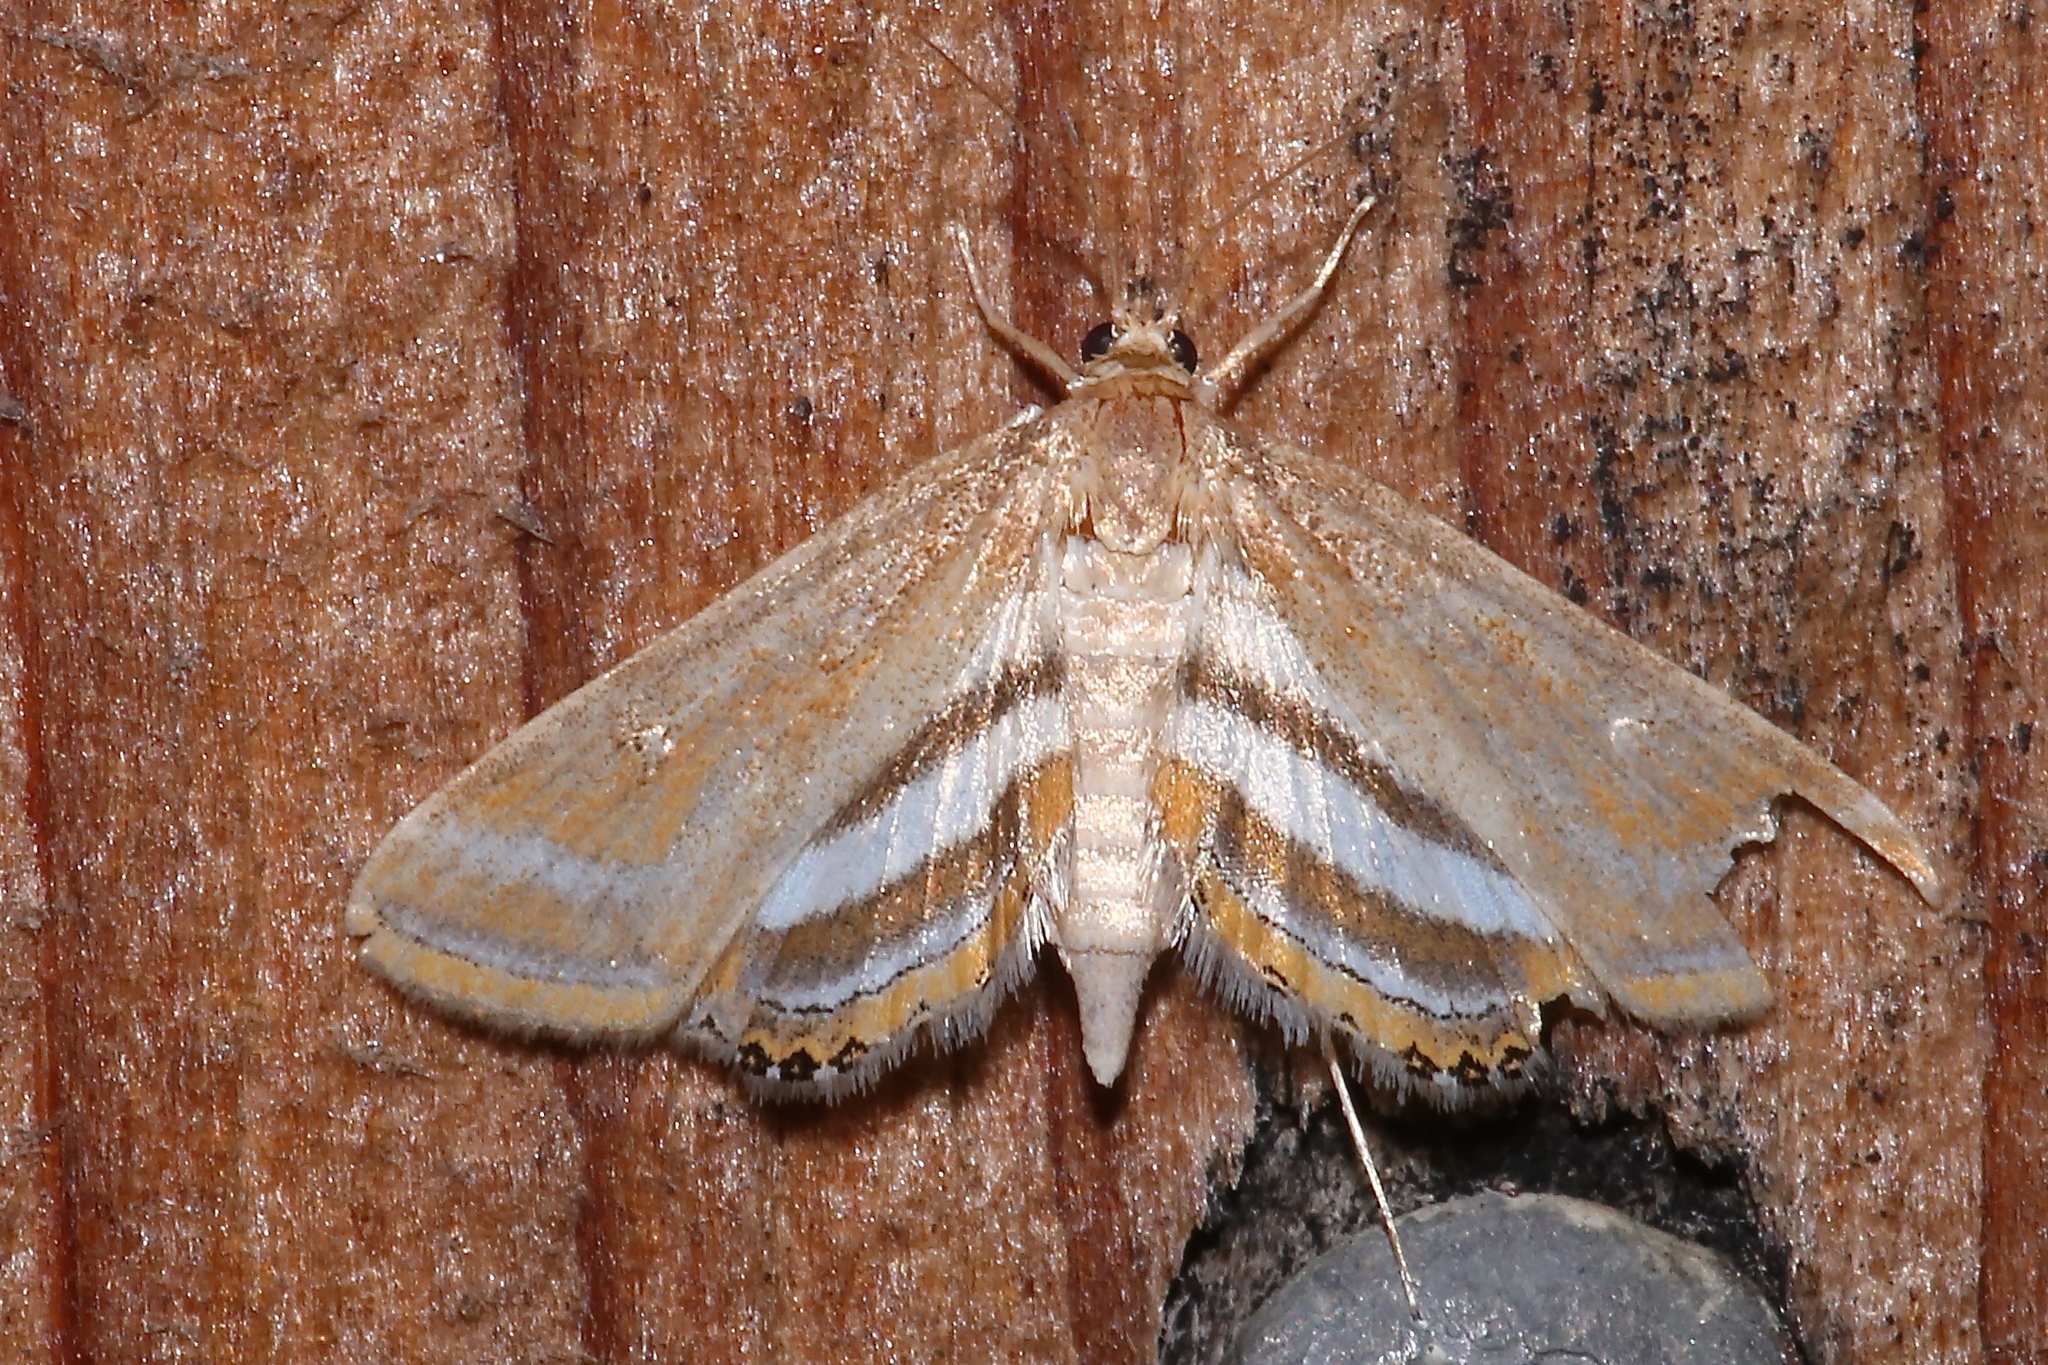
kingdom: Animalia
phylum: Arthropoda
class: Insecta
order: Lepidoptera
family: Crambidae
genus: Parapoynx
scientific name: Parapoynx seminealis
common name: Floating-heart waterlily leafcutter
